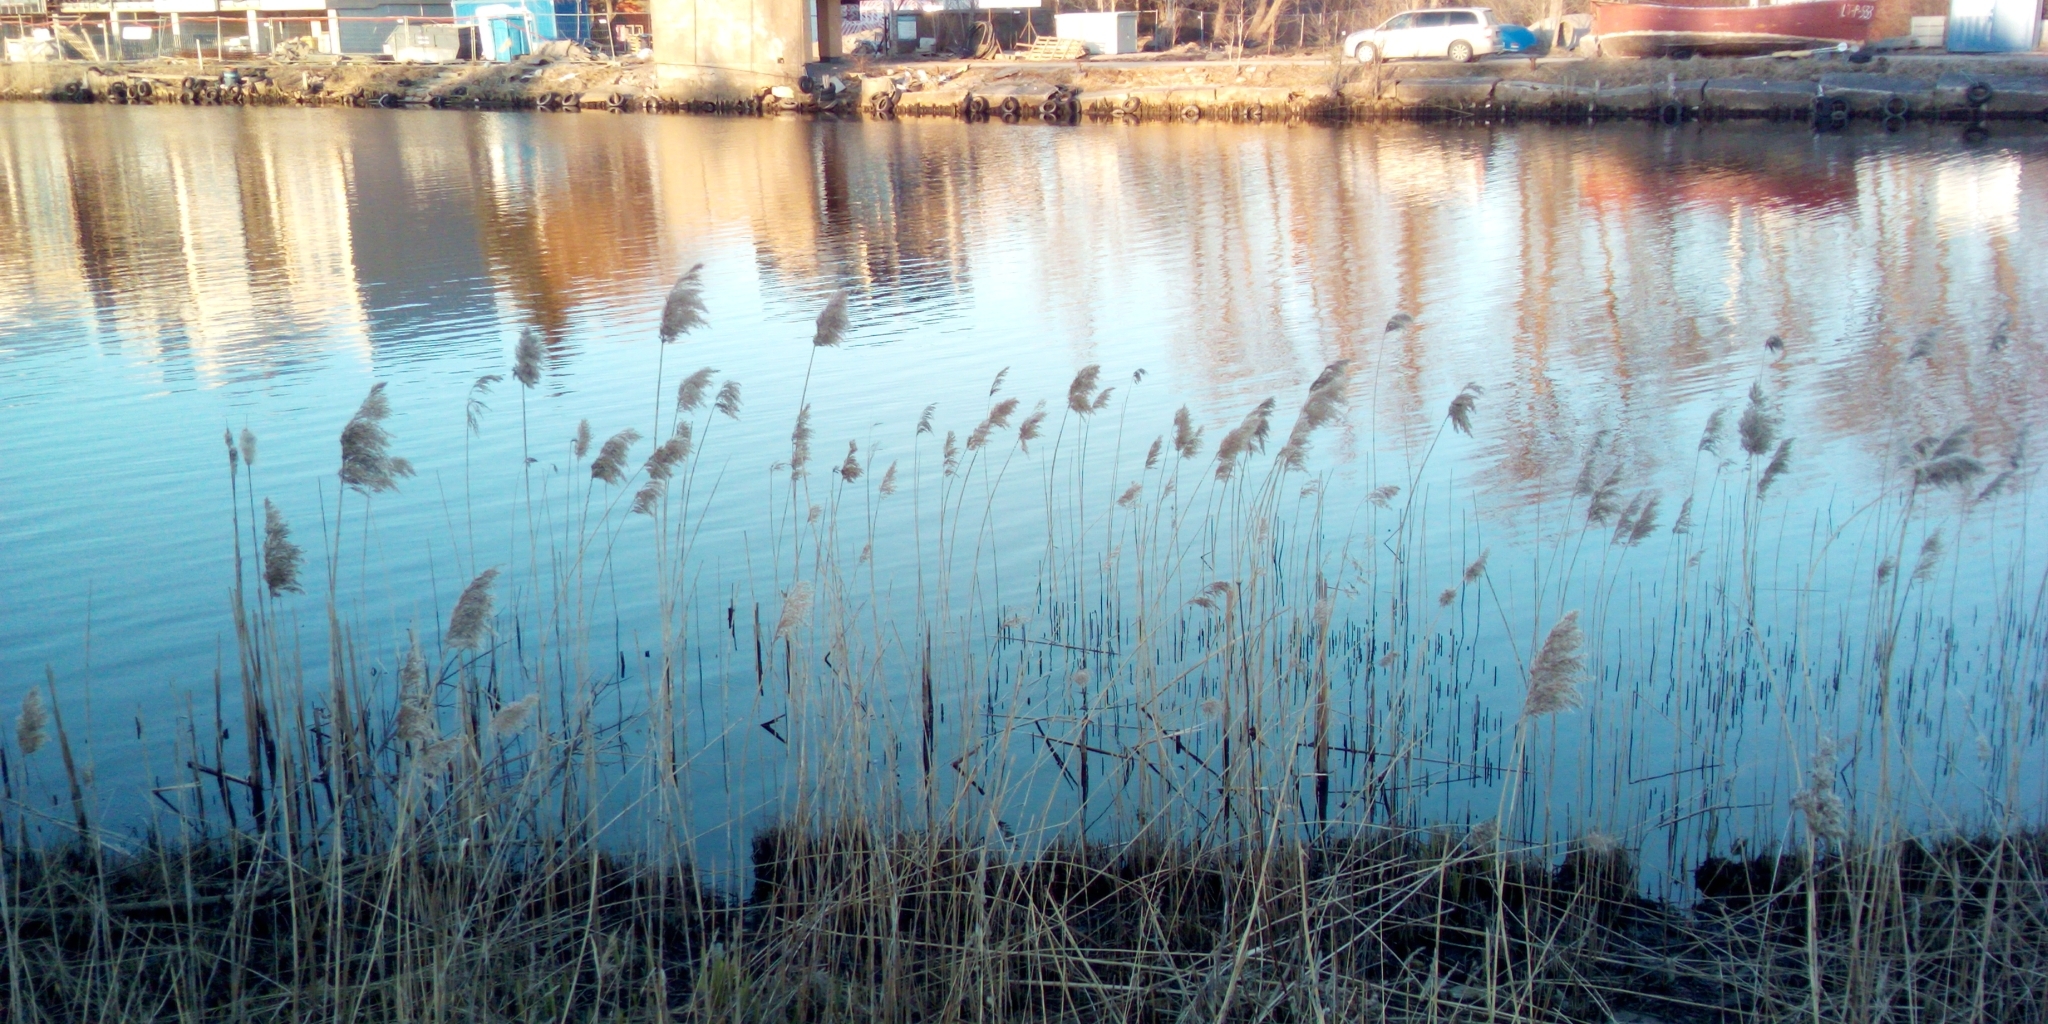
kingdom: Plantae
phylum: Tracheophyta
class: Liliopsida
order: Poales
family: Poaceae
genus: Phragmites
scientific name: Phragmites australis
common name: Common reed
